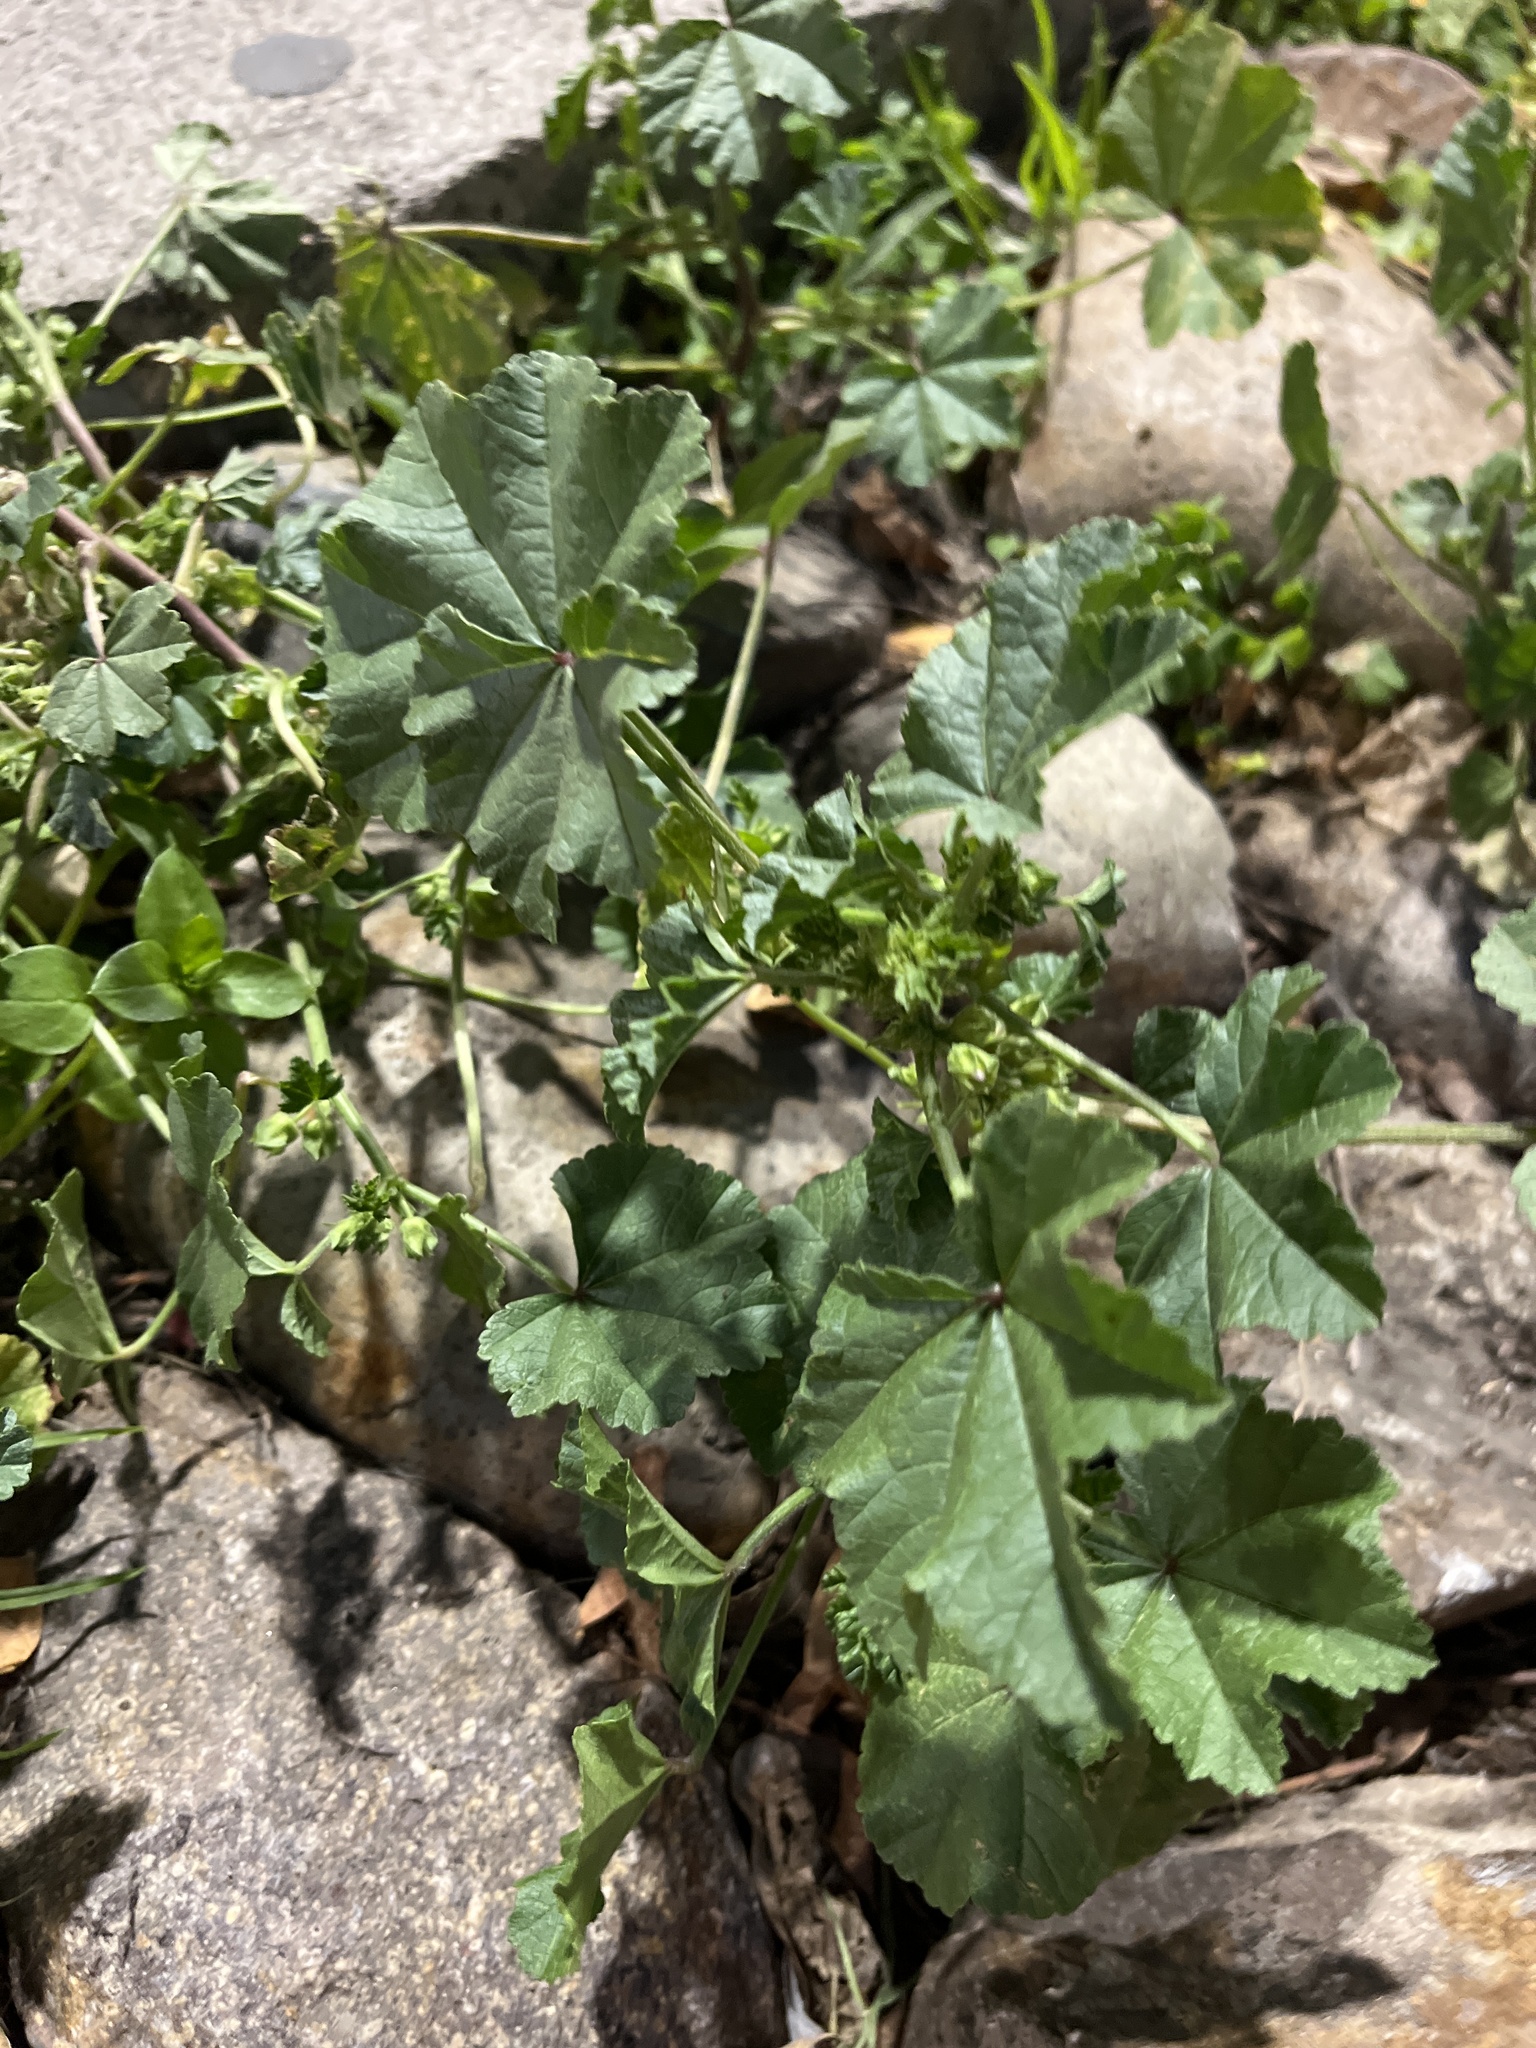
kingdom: Plantae
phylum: Tracheophyta
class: Magnoliopsida
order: Malvales
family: Malvaceae
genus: Malva
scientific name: Malva parviflora
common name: Least mallow
